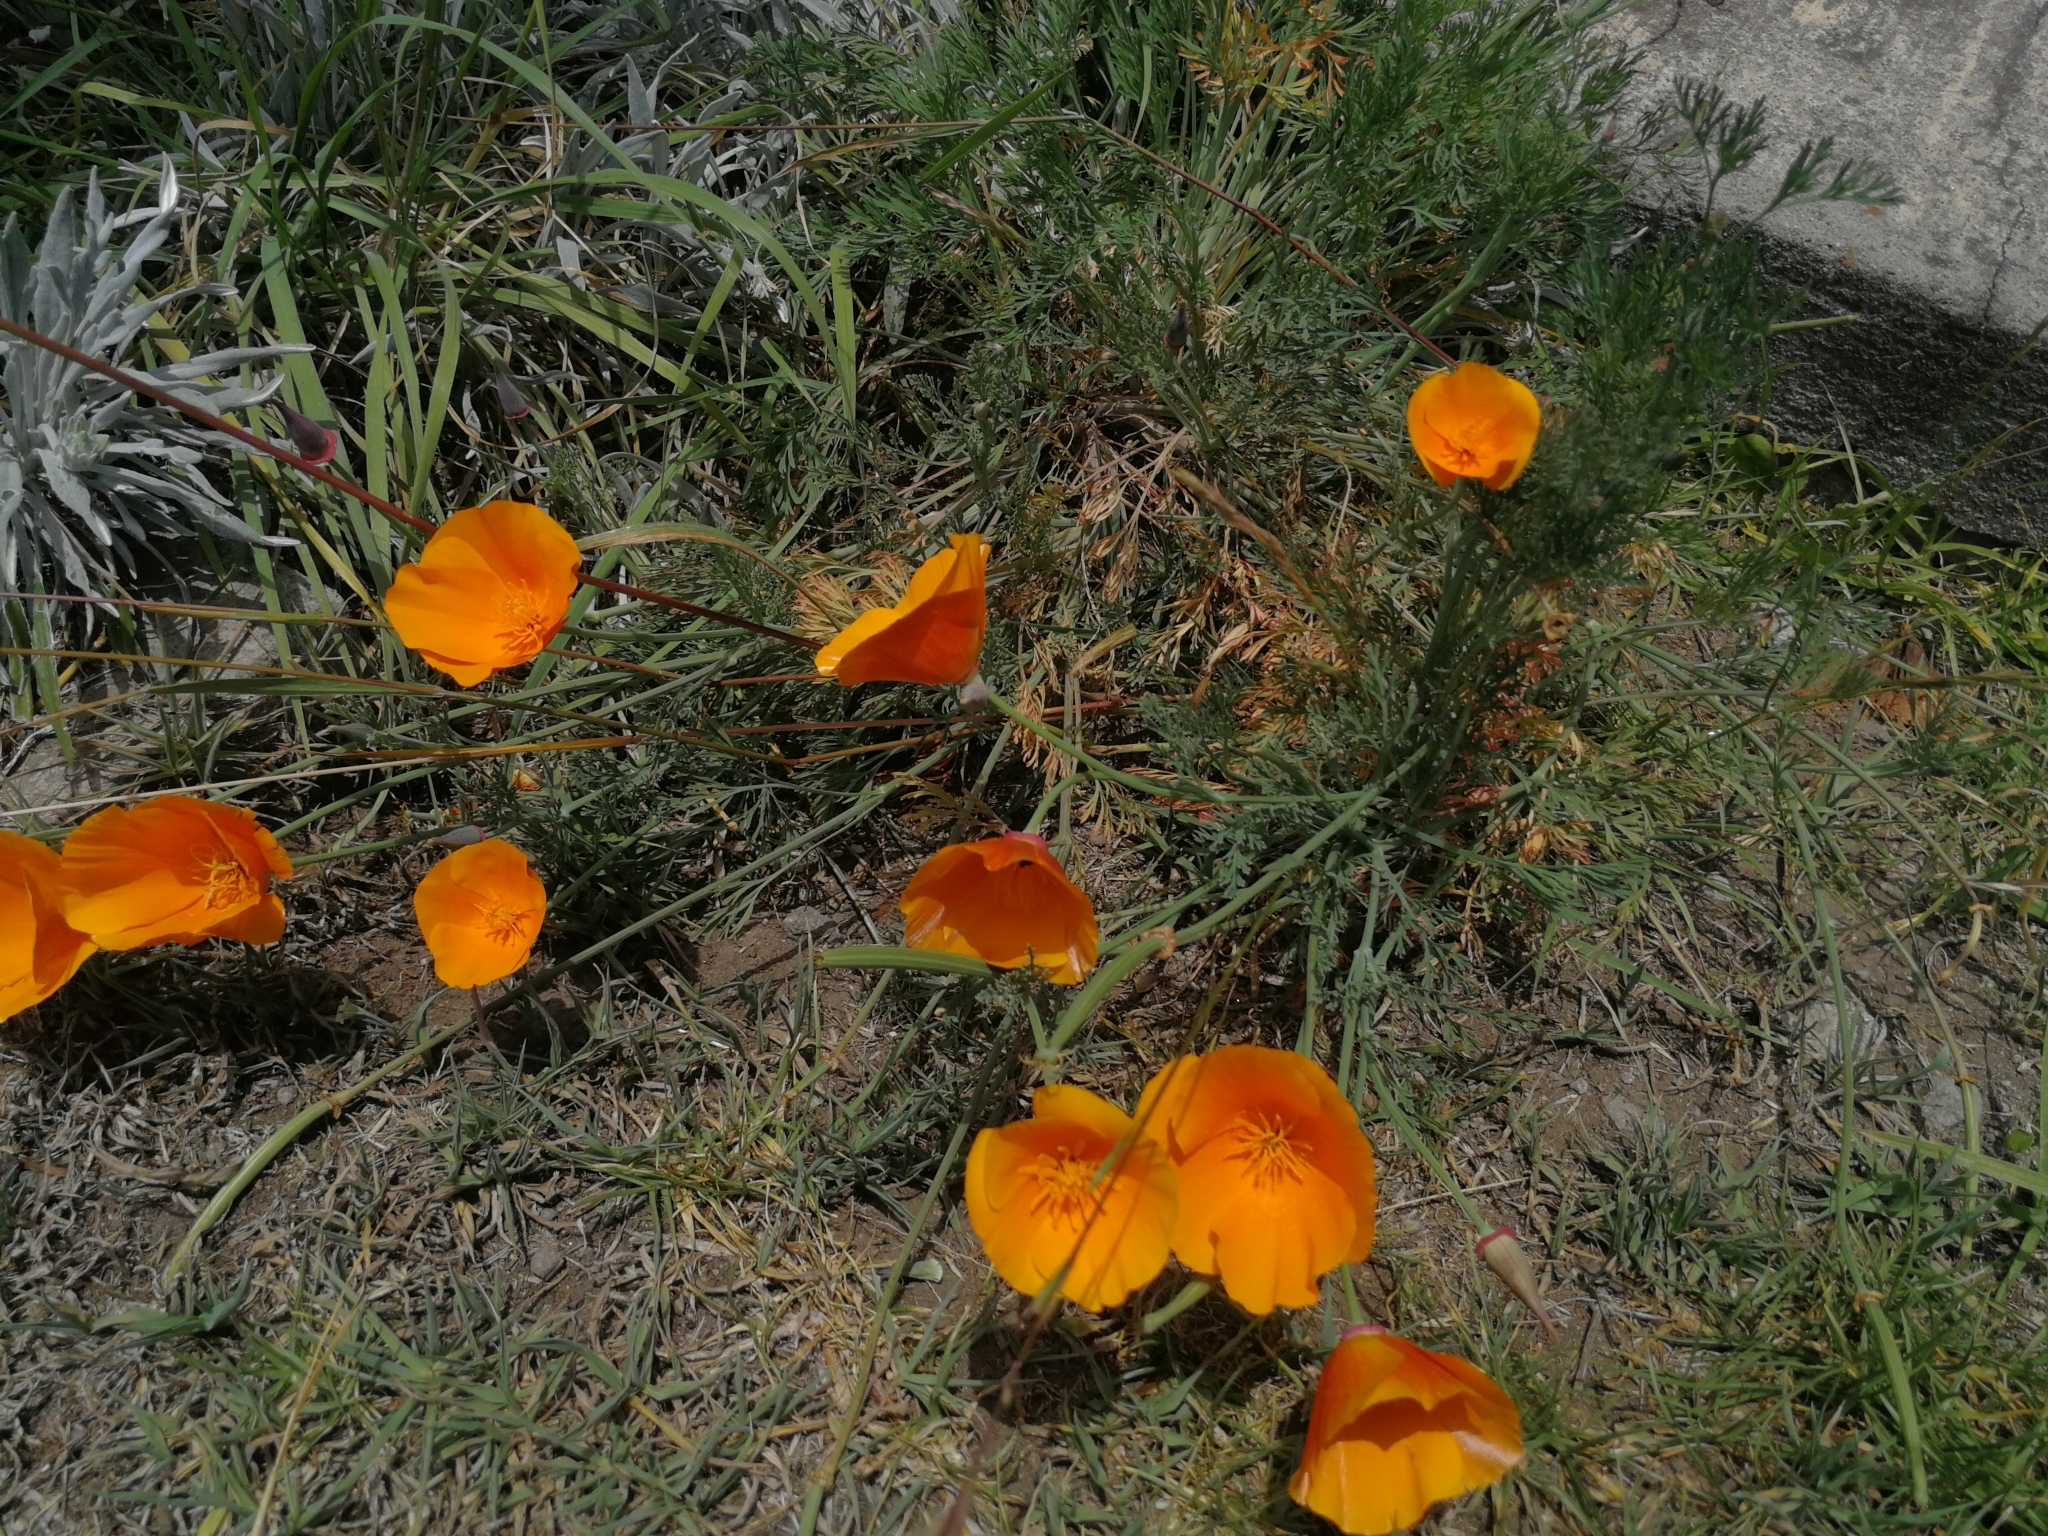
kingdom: Plantae
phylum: Tracheophyta
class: Magnoliopsida
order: Ranunculales
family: Papaveraceae
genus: Eschscholzia
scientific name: Eschscholzia californica
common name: California poppy
